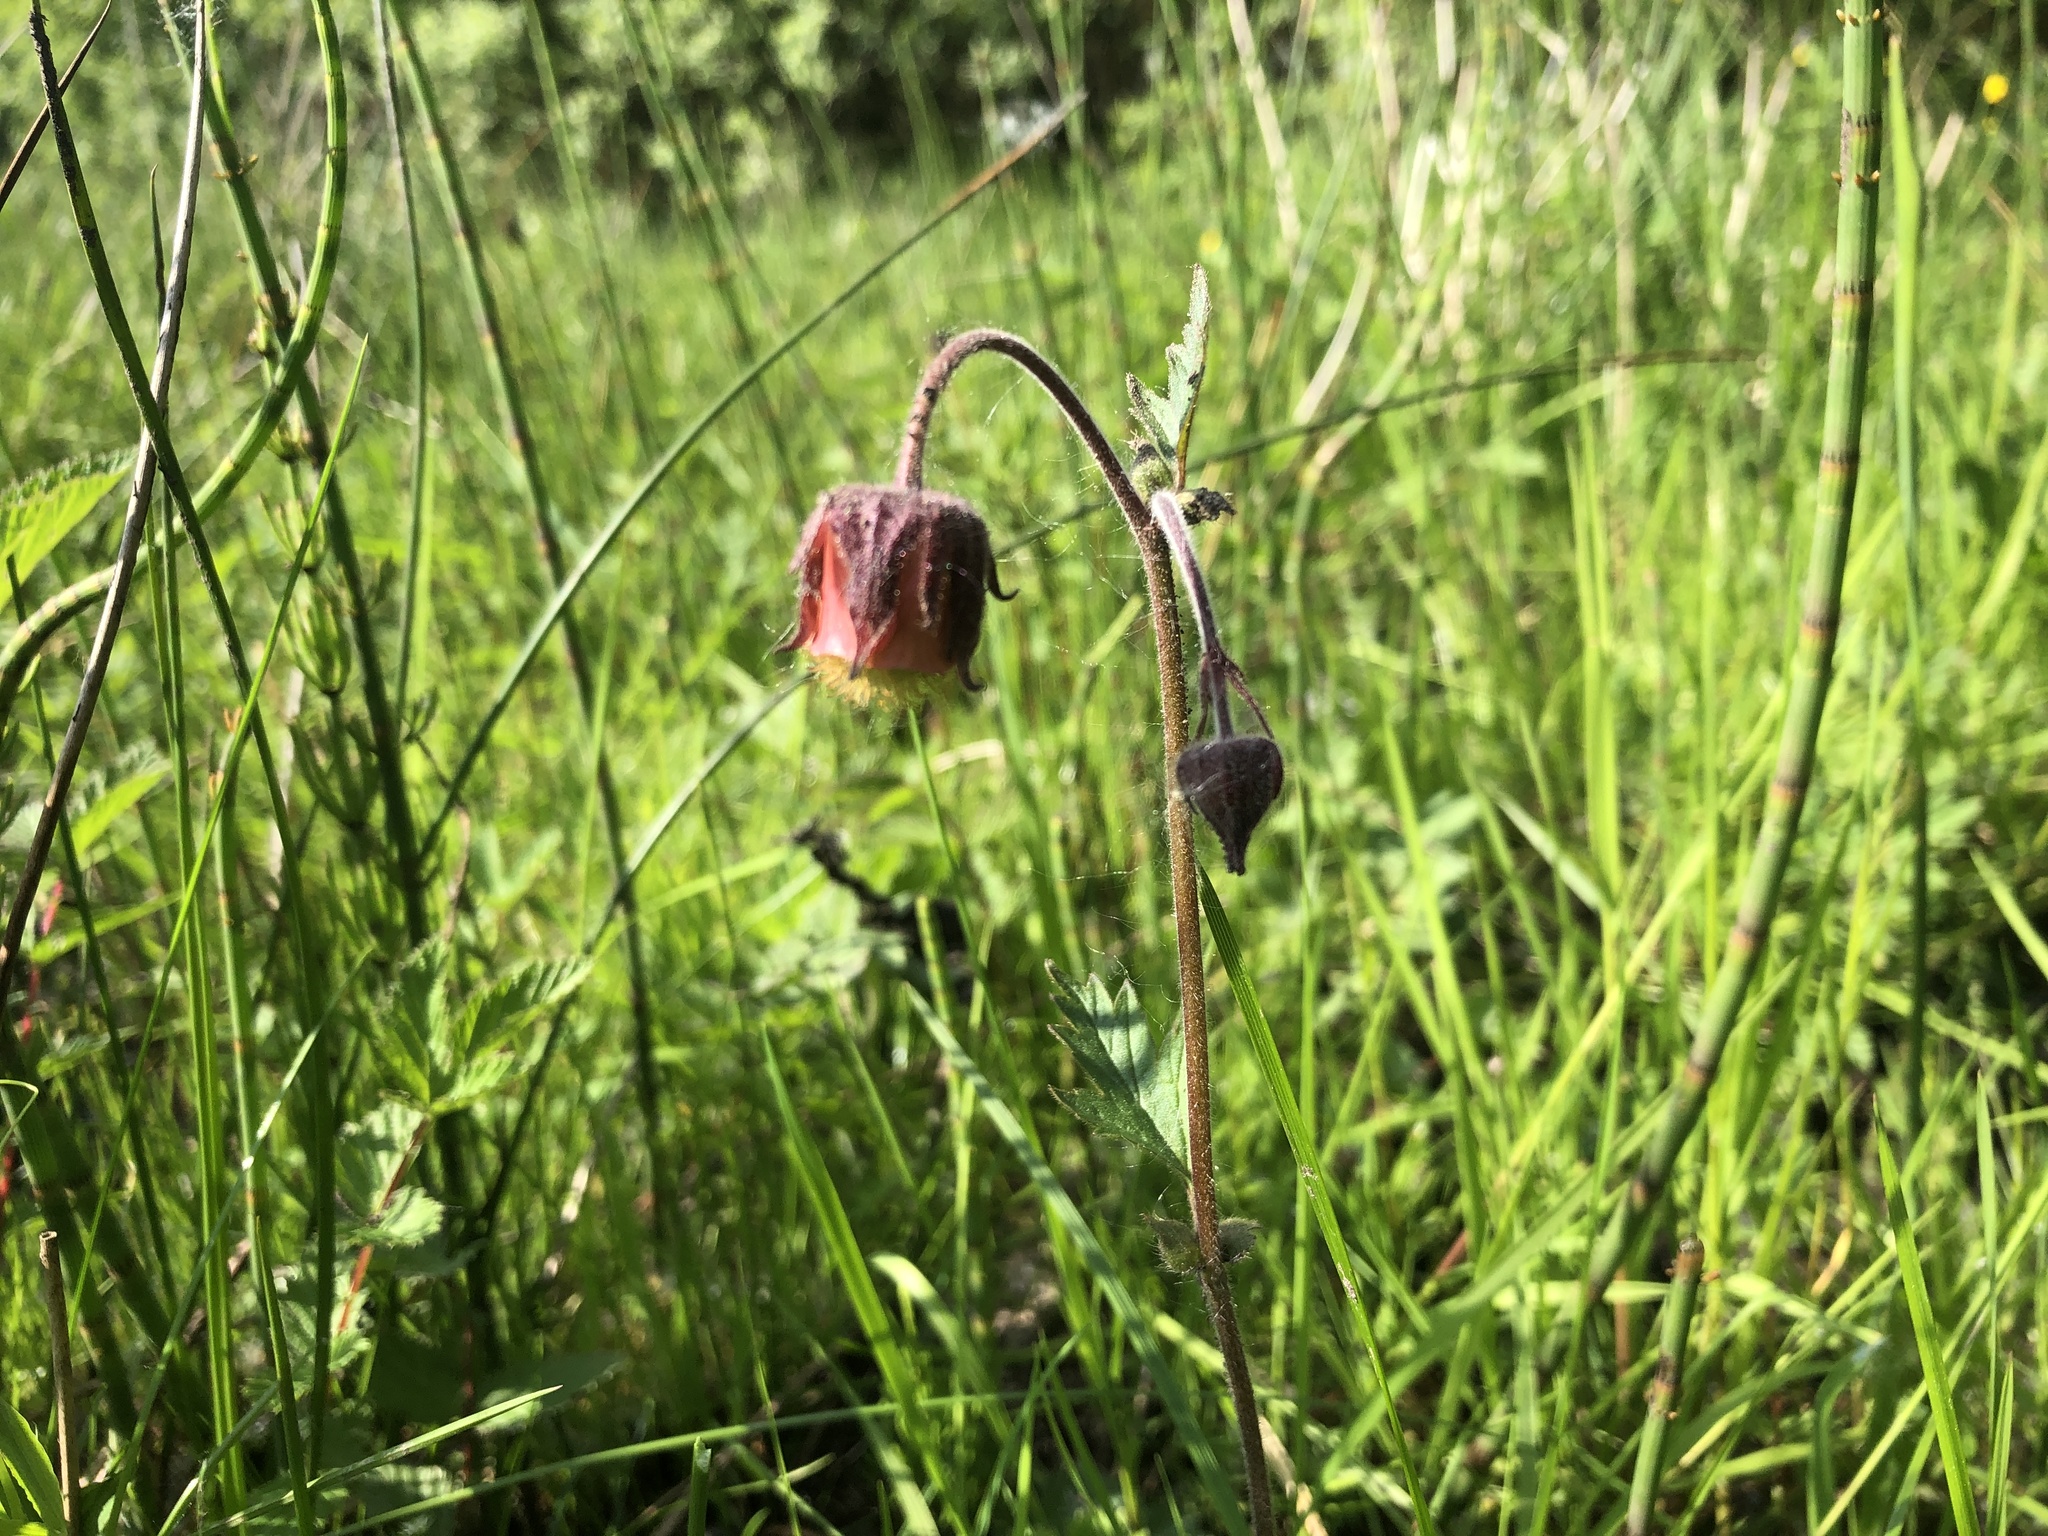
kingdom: Plantae
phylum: Tracheophyta
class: Magnoliopsida
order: Rosales
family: Rosaceae
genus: Geum
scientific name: Geum rivale
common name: Water avens
